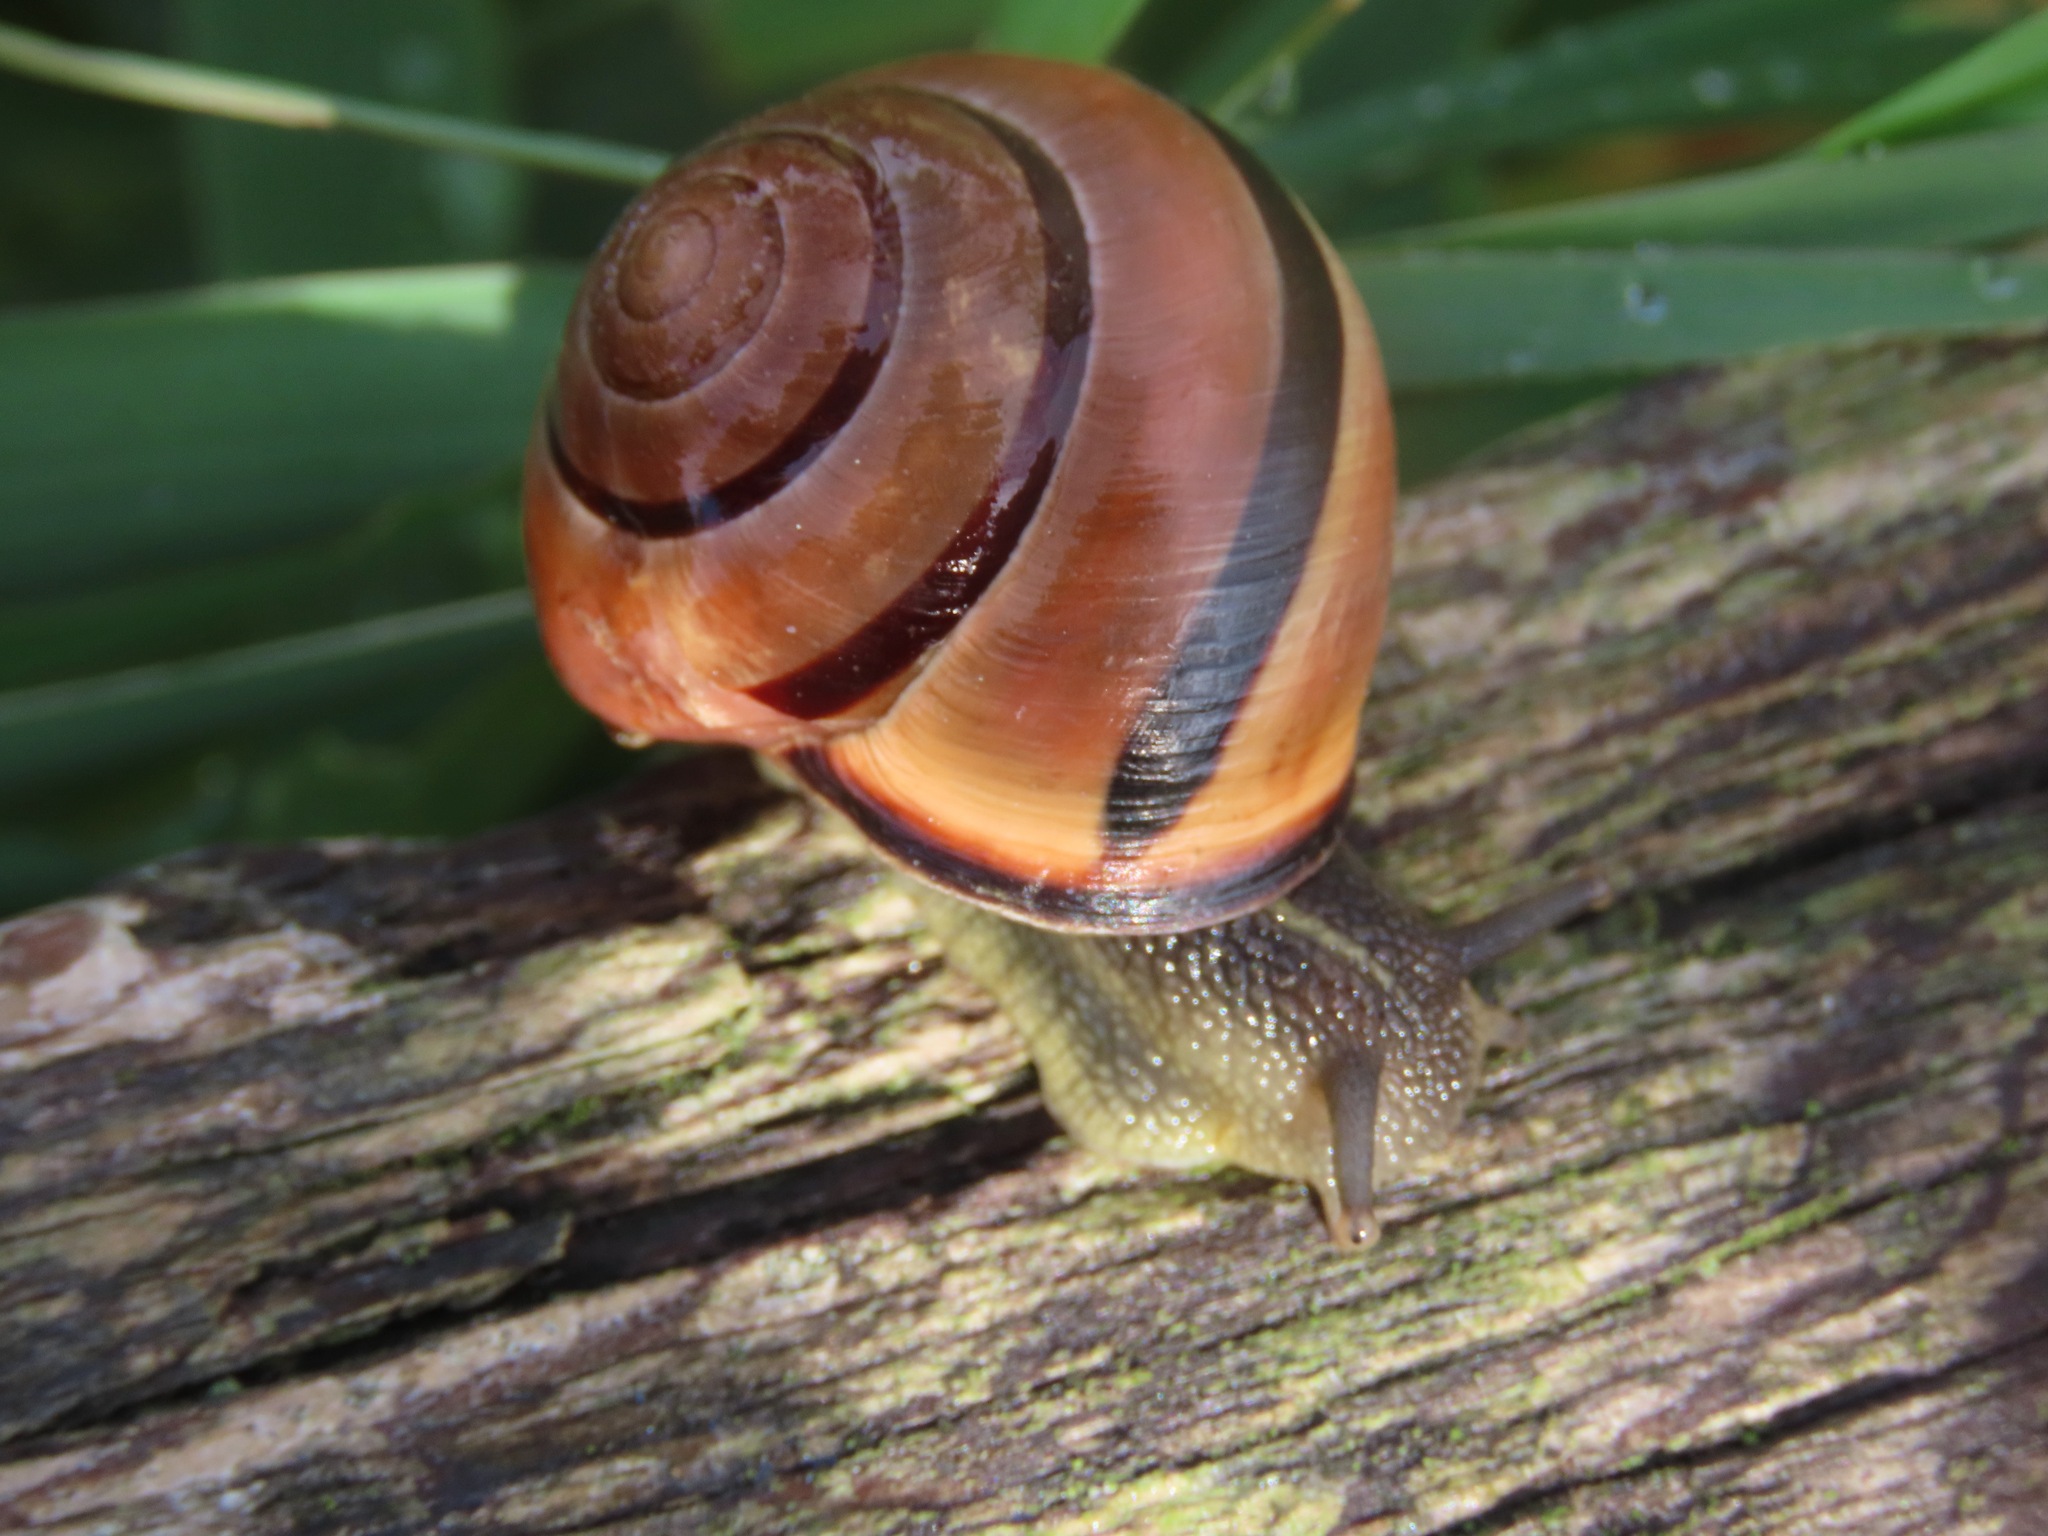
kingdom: Animalia
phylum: Mollusca
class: Gastropoda
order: Stylommatophora
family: Helicidae
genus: Cepaea
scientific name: Cepaea nemoralis
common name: Grovesnail
